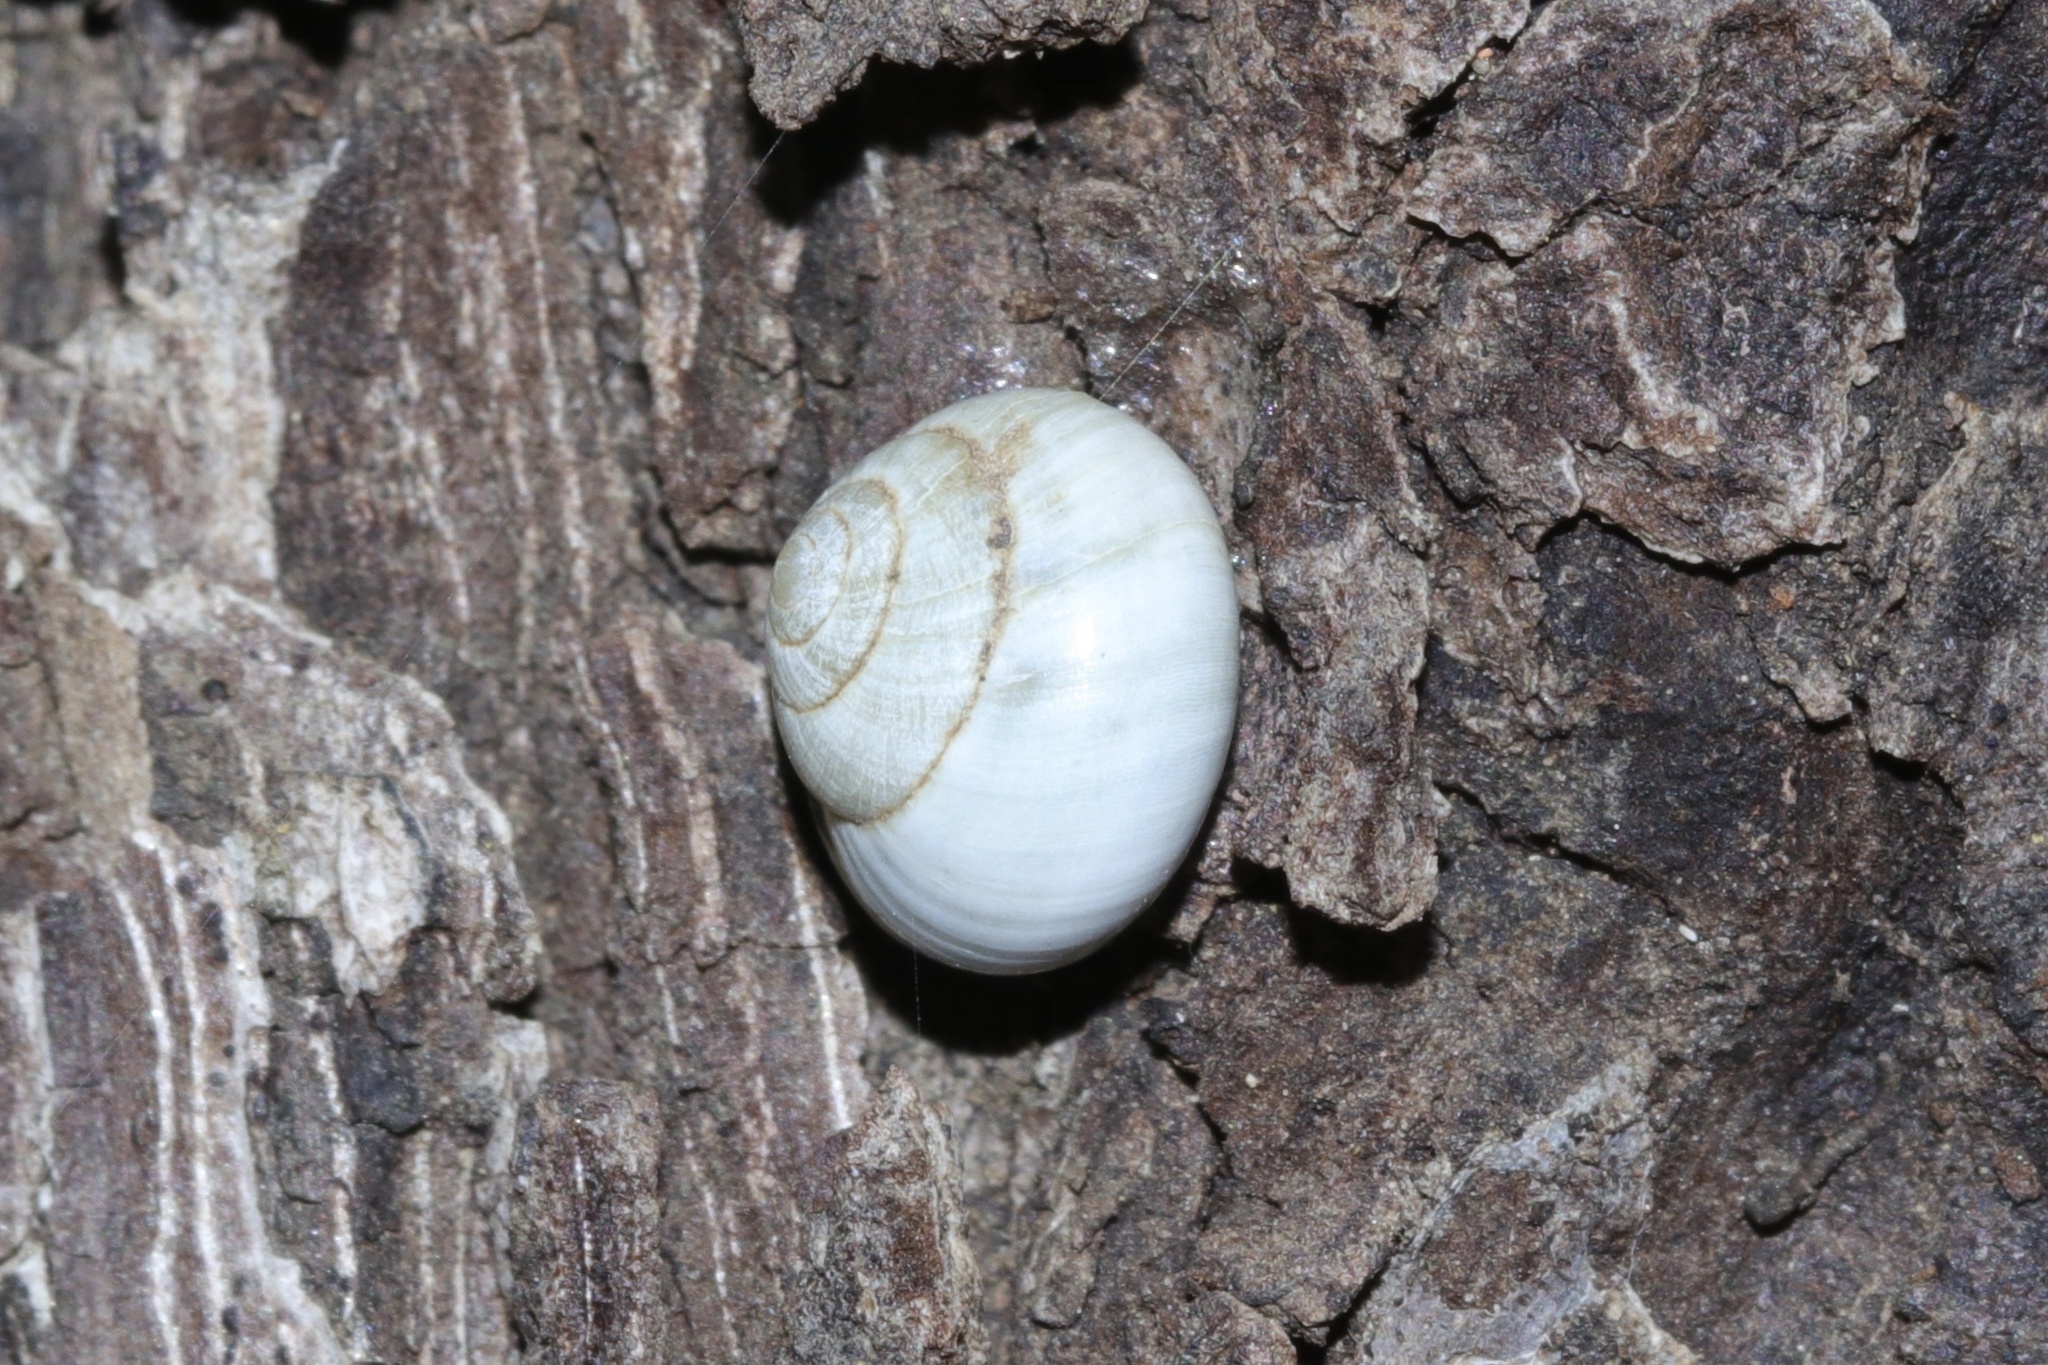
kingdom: Animalia
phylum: Mollusca
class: Gastropoda
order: Cycloneritida
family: Helicinidae
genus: Helicina
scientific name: Helicina orbiculata
